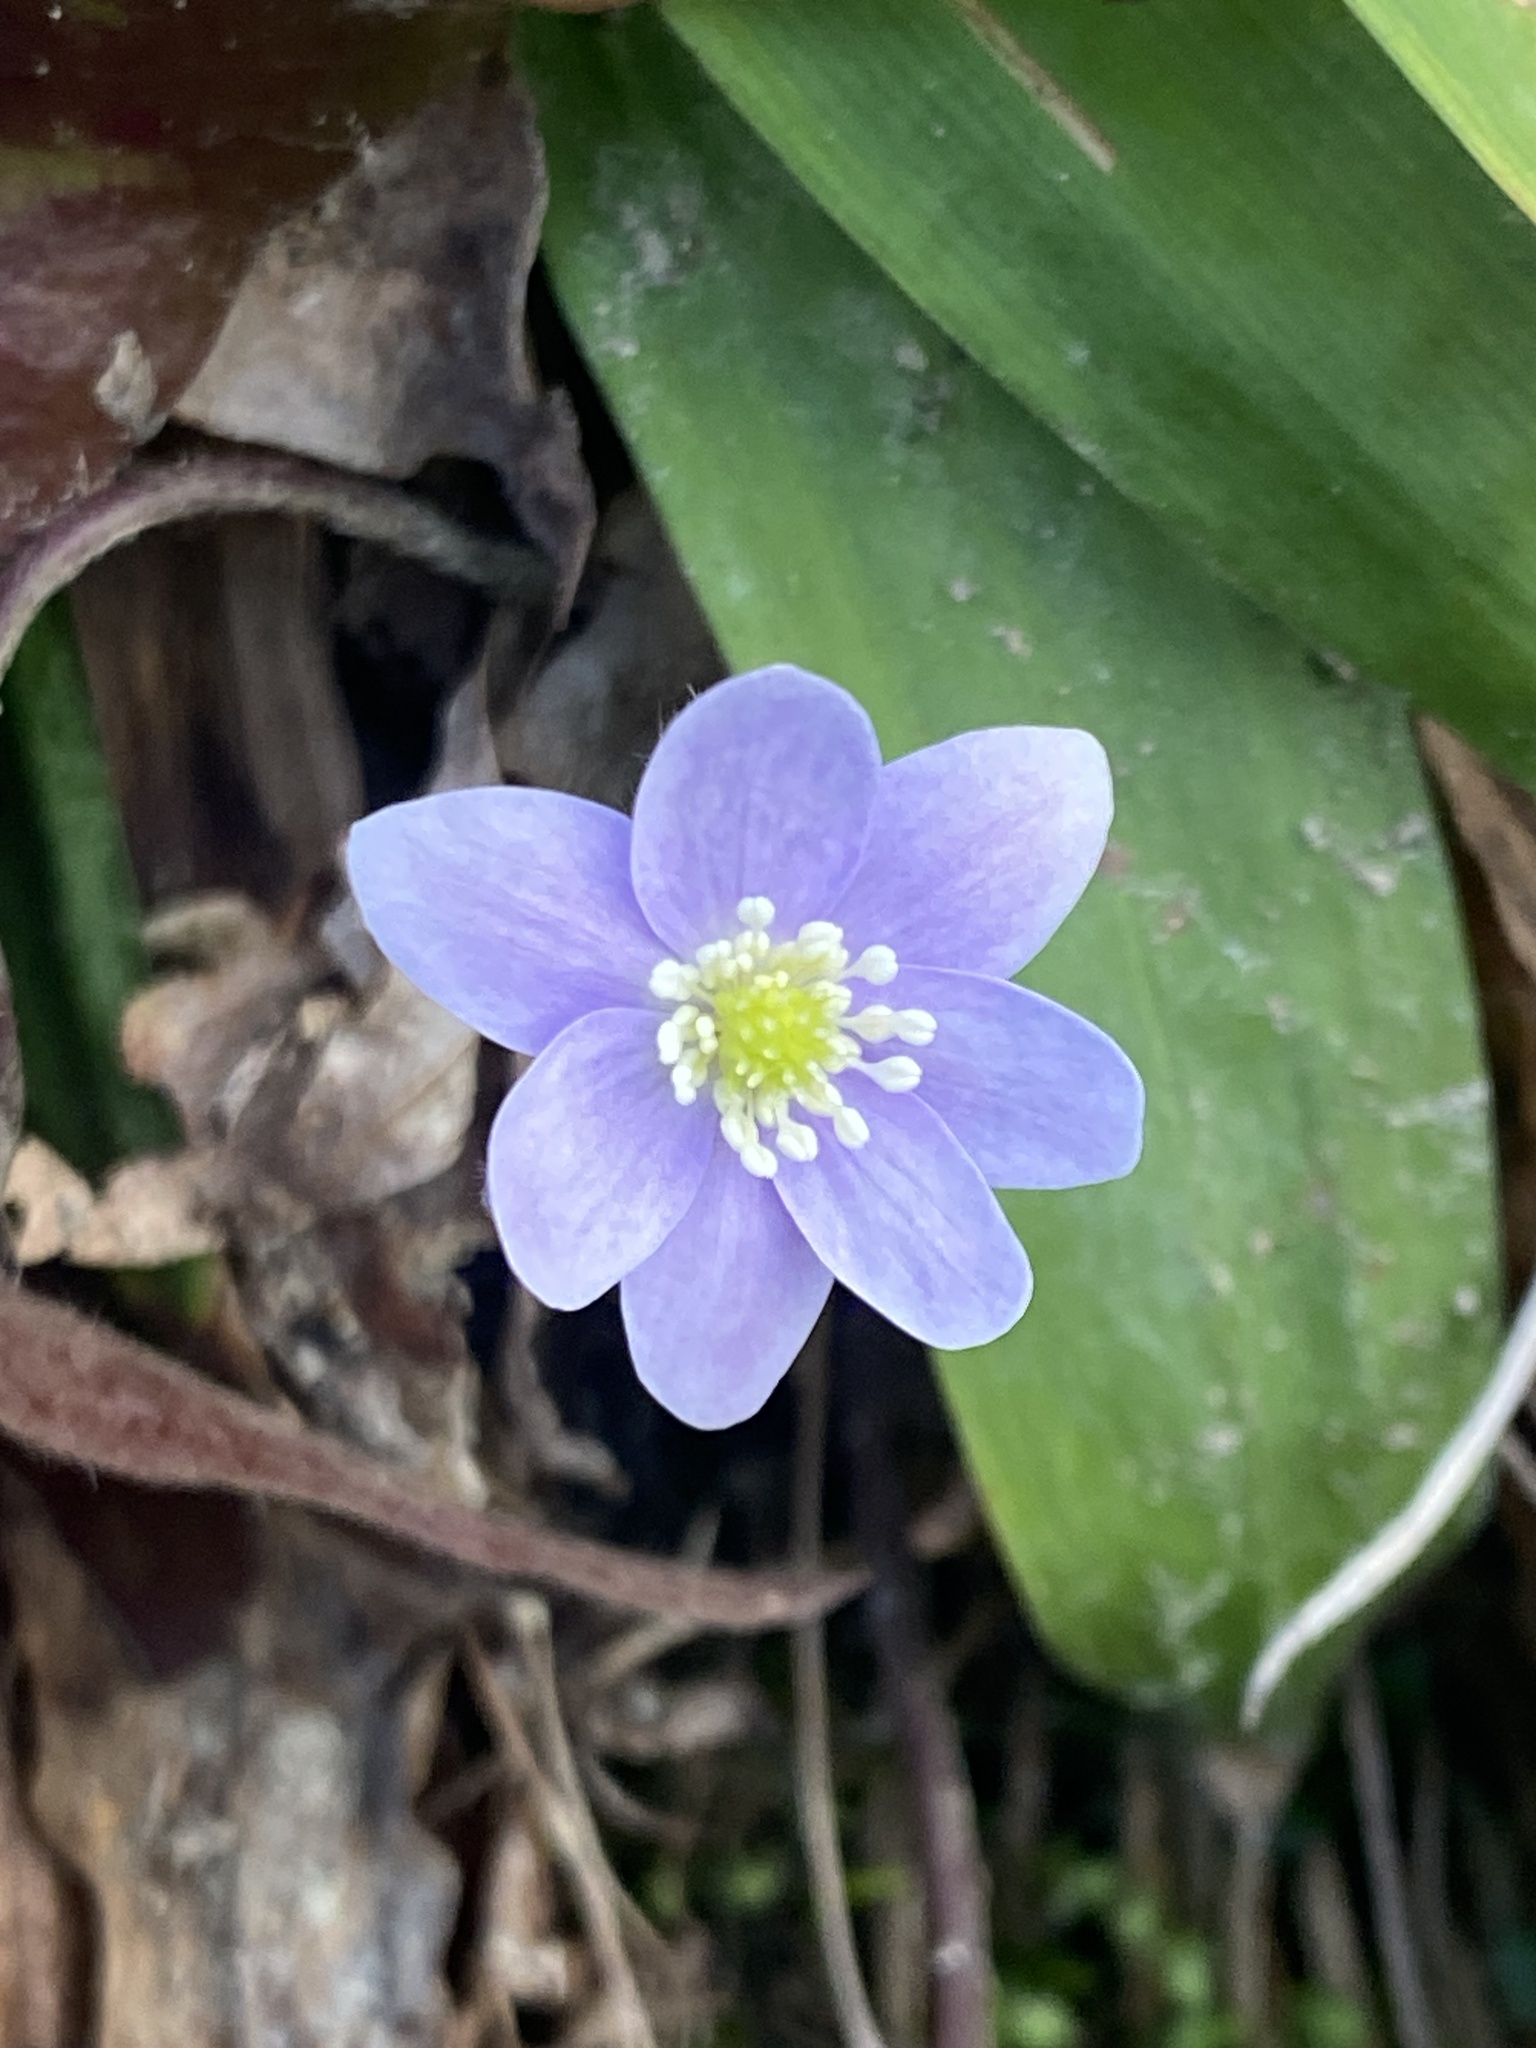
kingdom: Plantae
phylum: Tracheophyta
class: Magnoliopsida
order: Ranunculales
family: Ranunculaceae
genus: Hepatica
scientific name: Hepatica acutiloba
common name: Sharp-lobed hepatica
